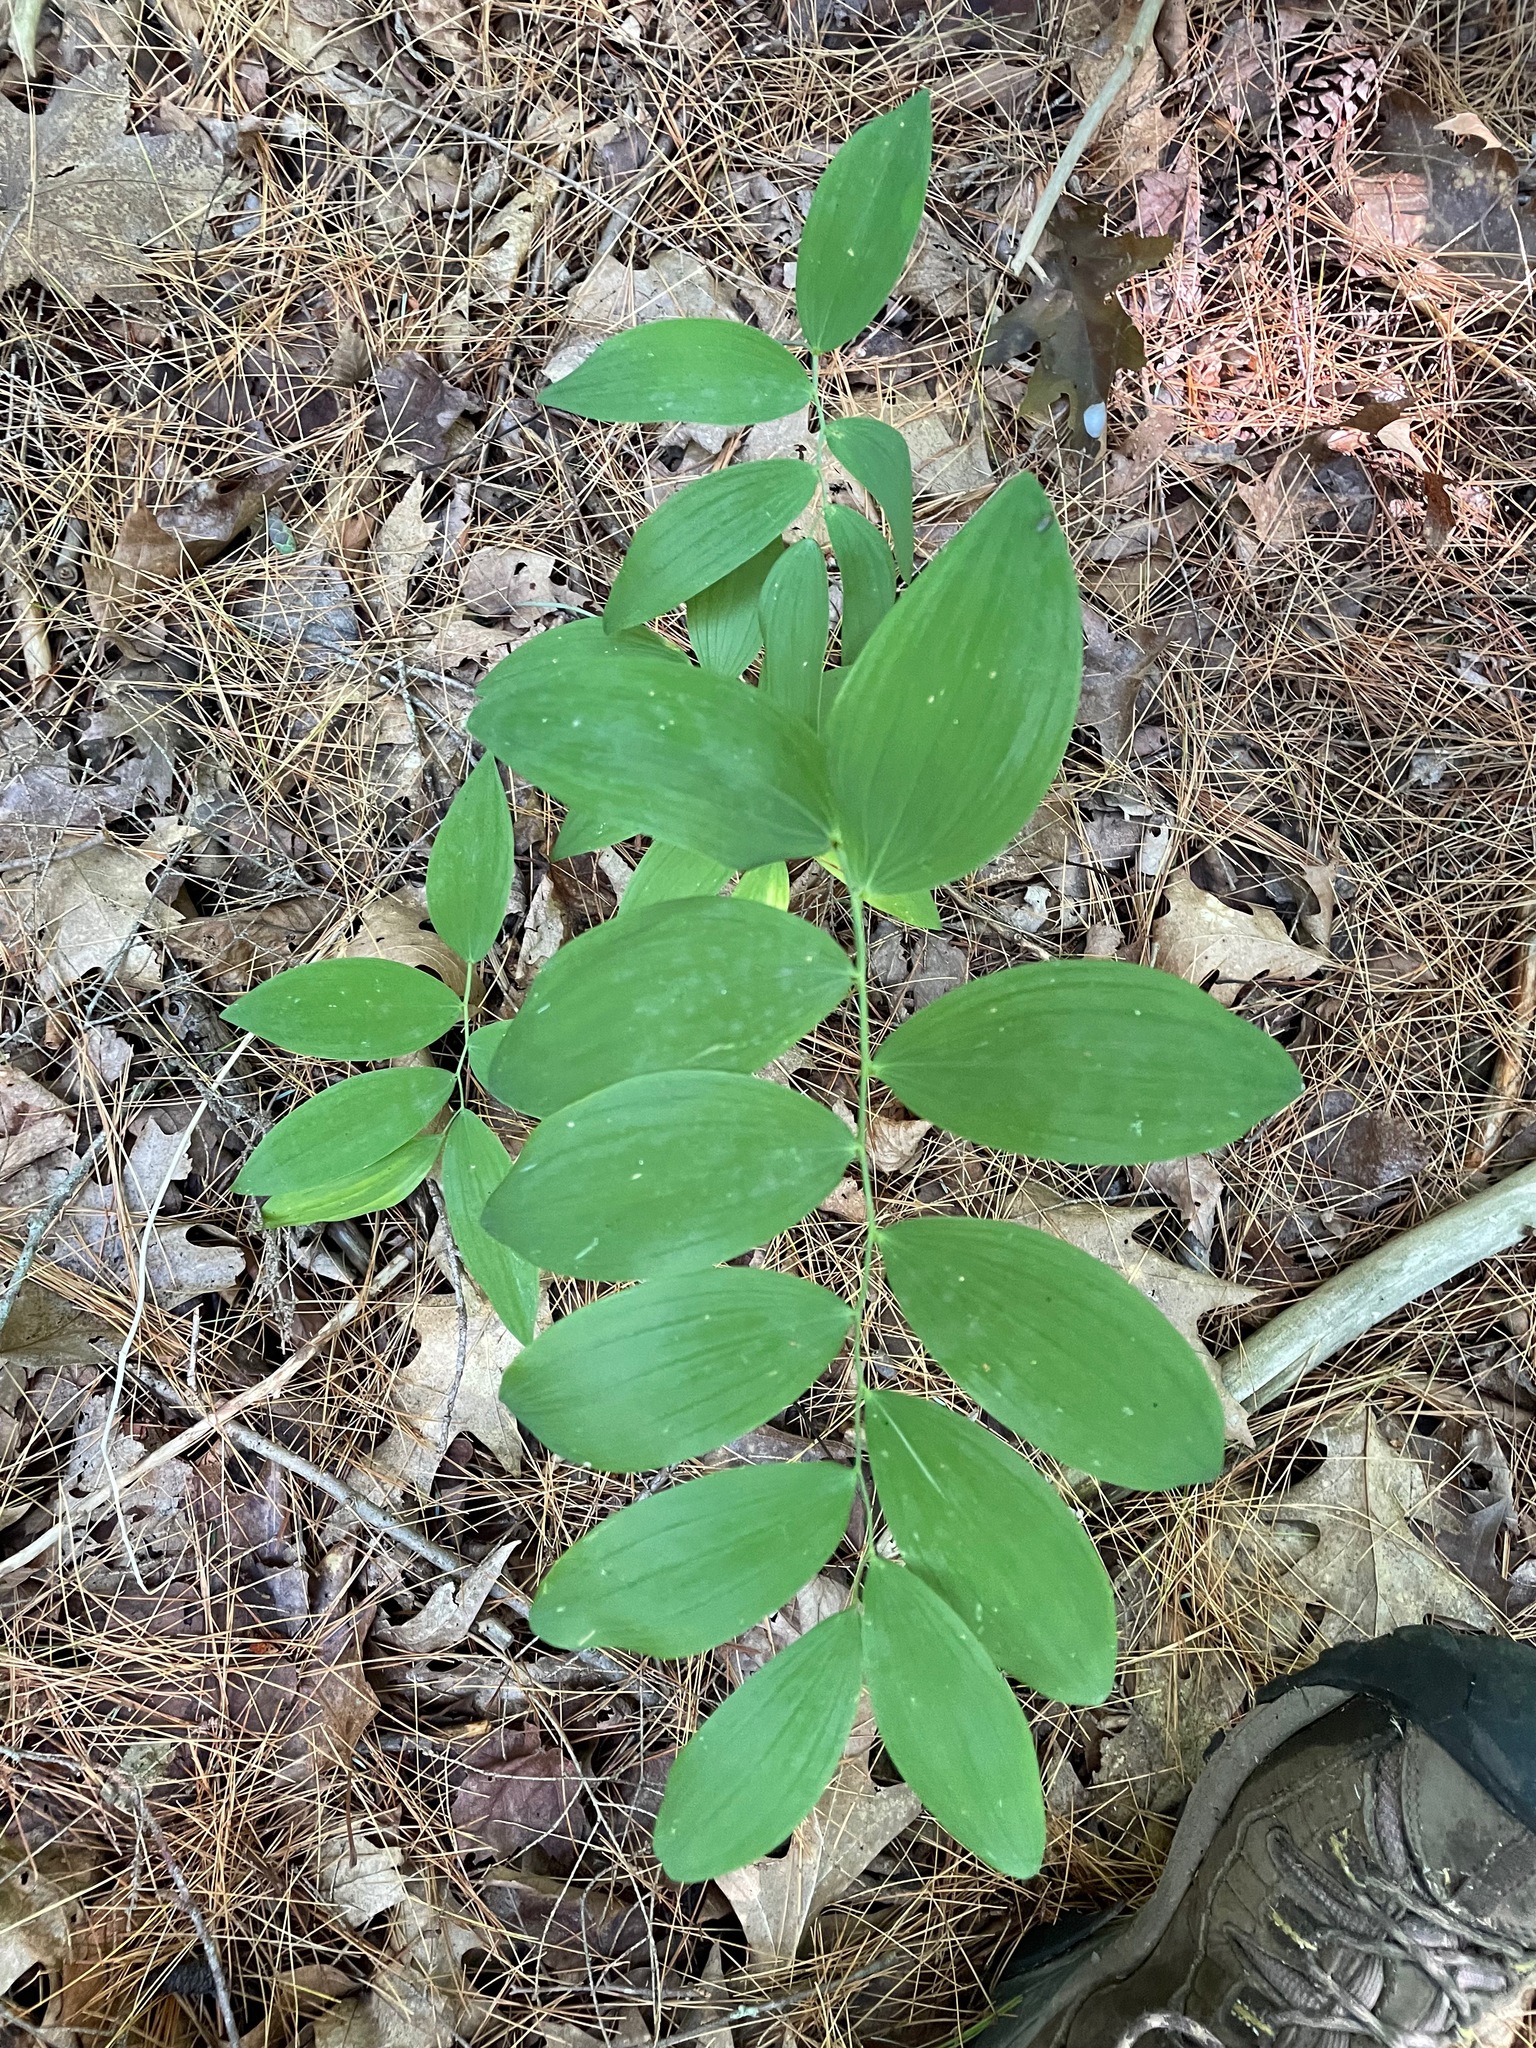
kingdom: Plantae
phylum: Tracheophyta
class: Liliopsida
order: Asparagales
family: Asparagaceae
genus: Polygonatum
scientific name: Polygonatum pubescens
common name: Downy solomon's seal
